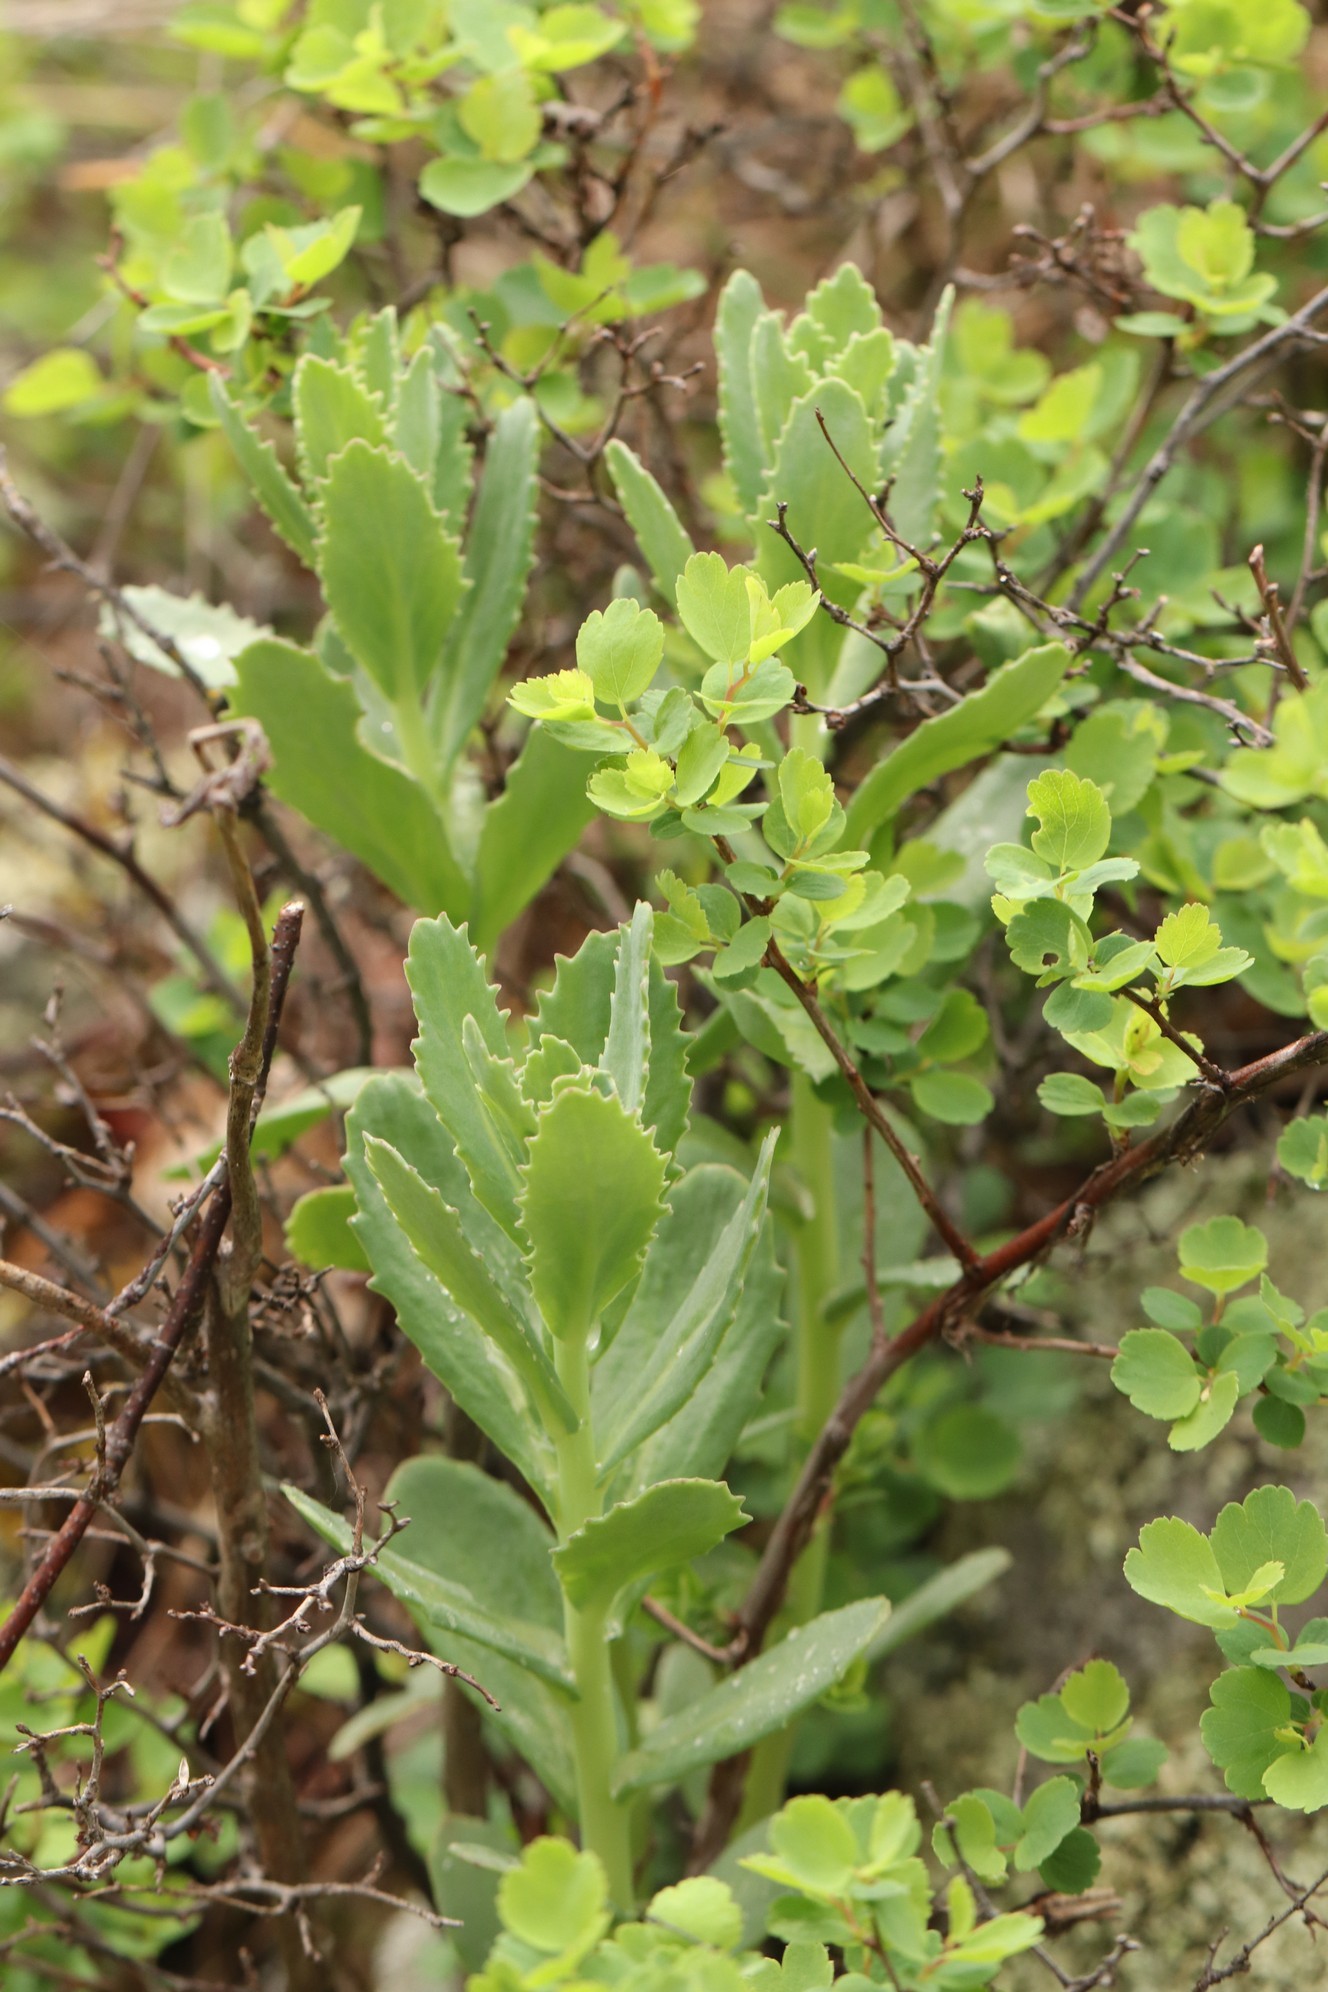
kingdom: Plantae
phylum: Tracheophyta
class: Magnoliopsida
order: Saxifragales
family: Crassulaceae
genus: Hylotelephium
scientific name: Hylotelephium telephium
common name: Live-forever
